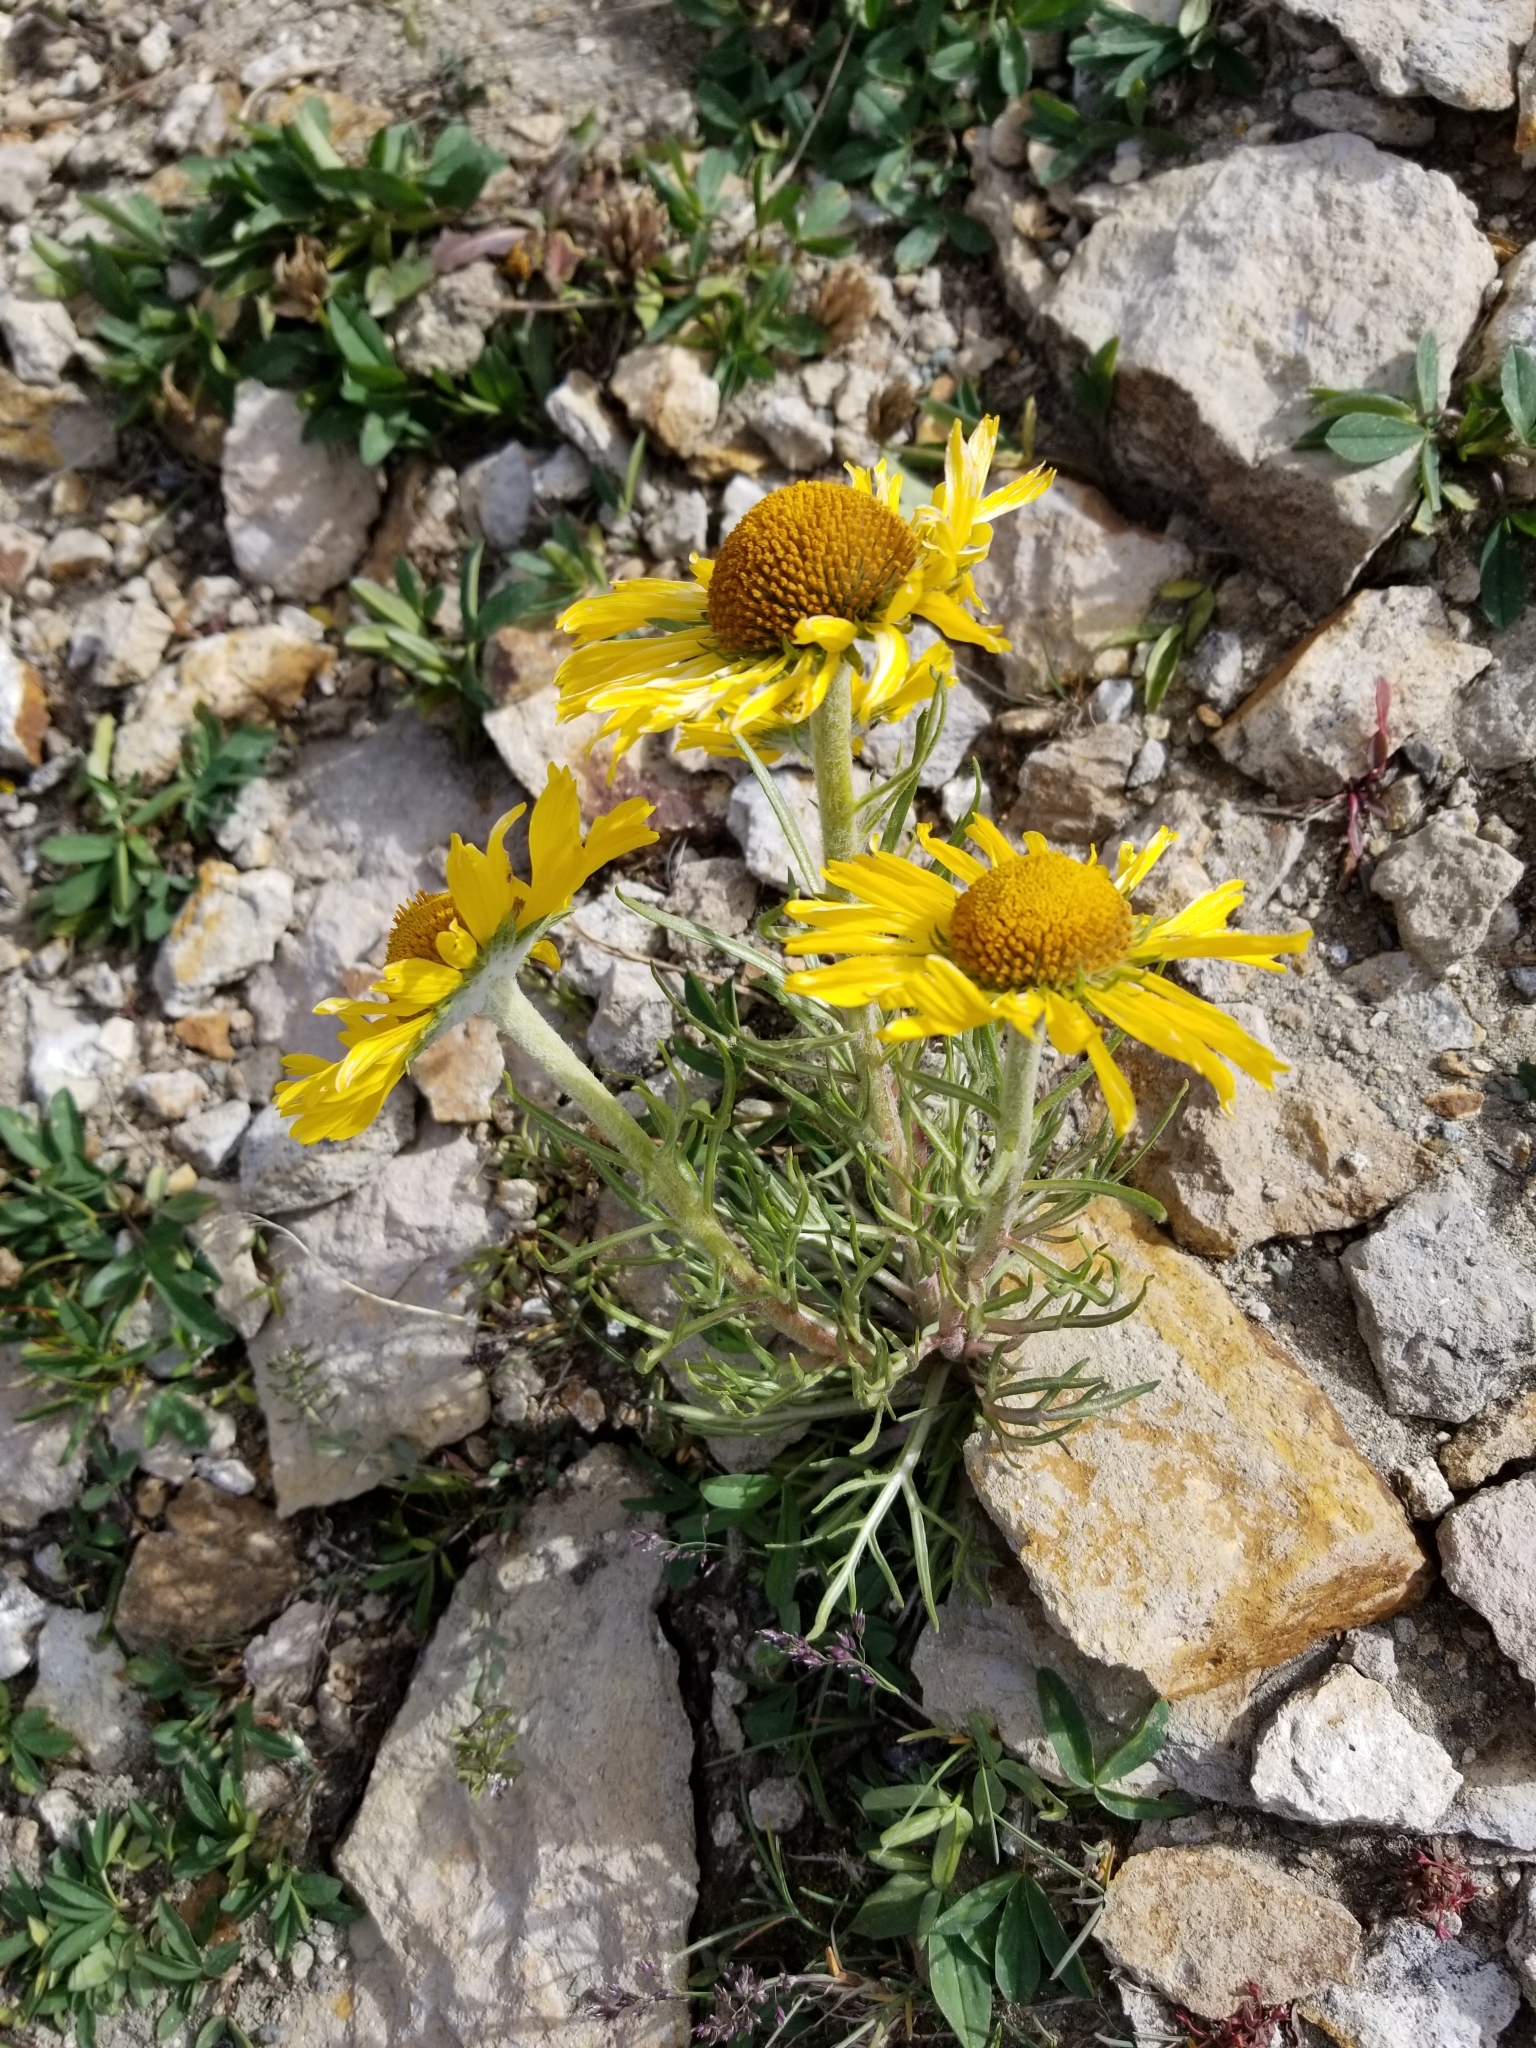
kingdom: Plantae
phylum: Tracheophyta
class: Magnoliopsida
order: Asterales
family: Asteraceae
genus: Hymenoxys
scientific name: Hymenoxys grandiflora
